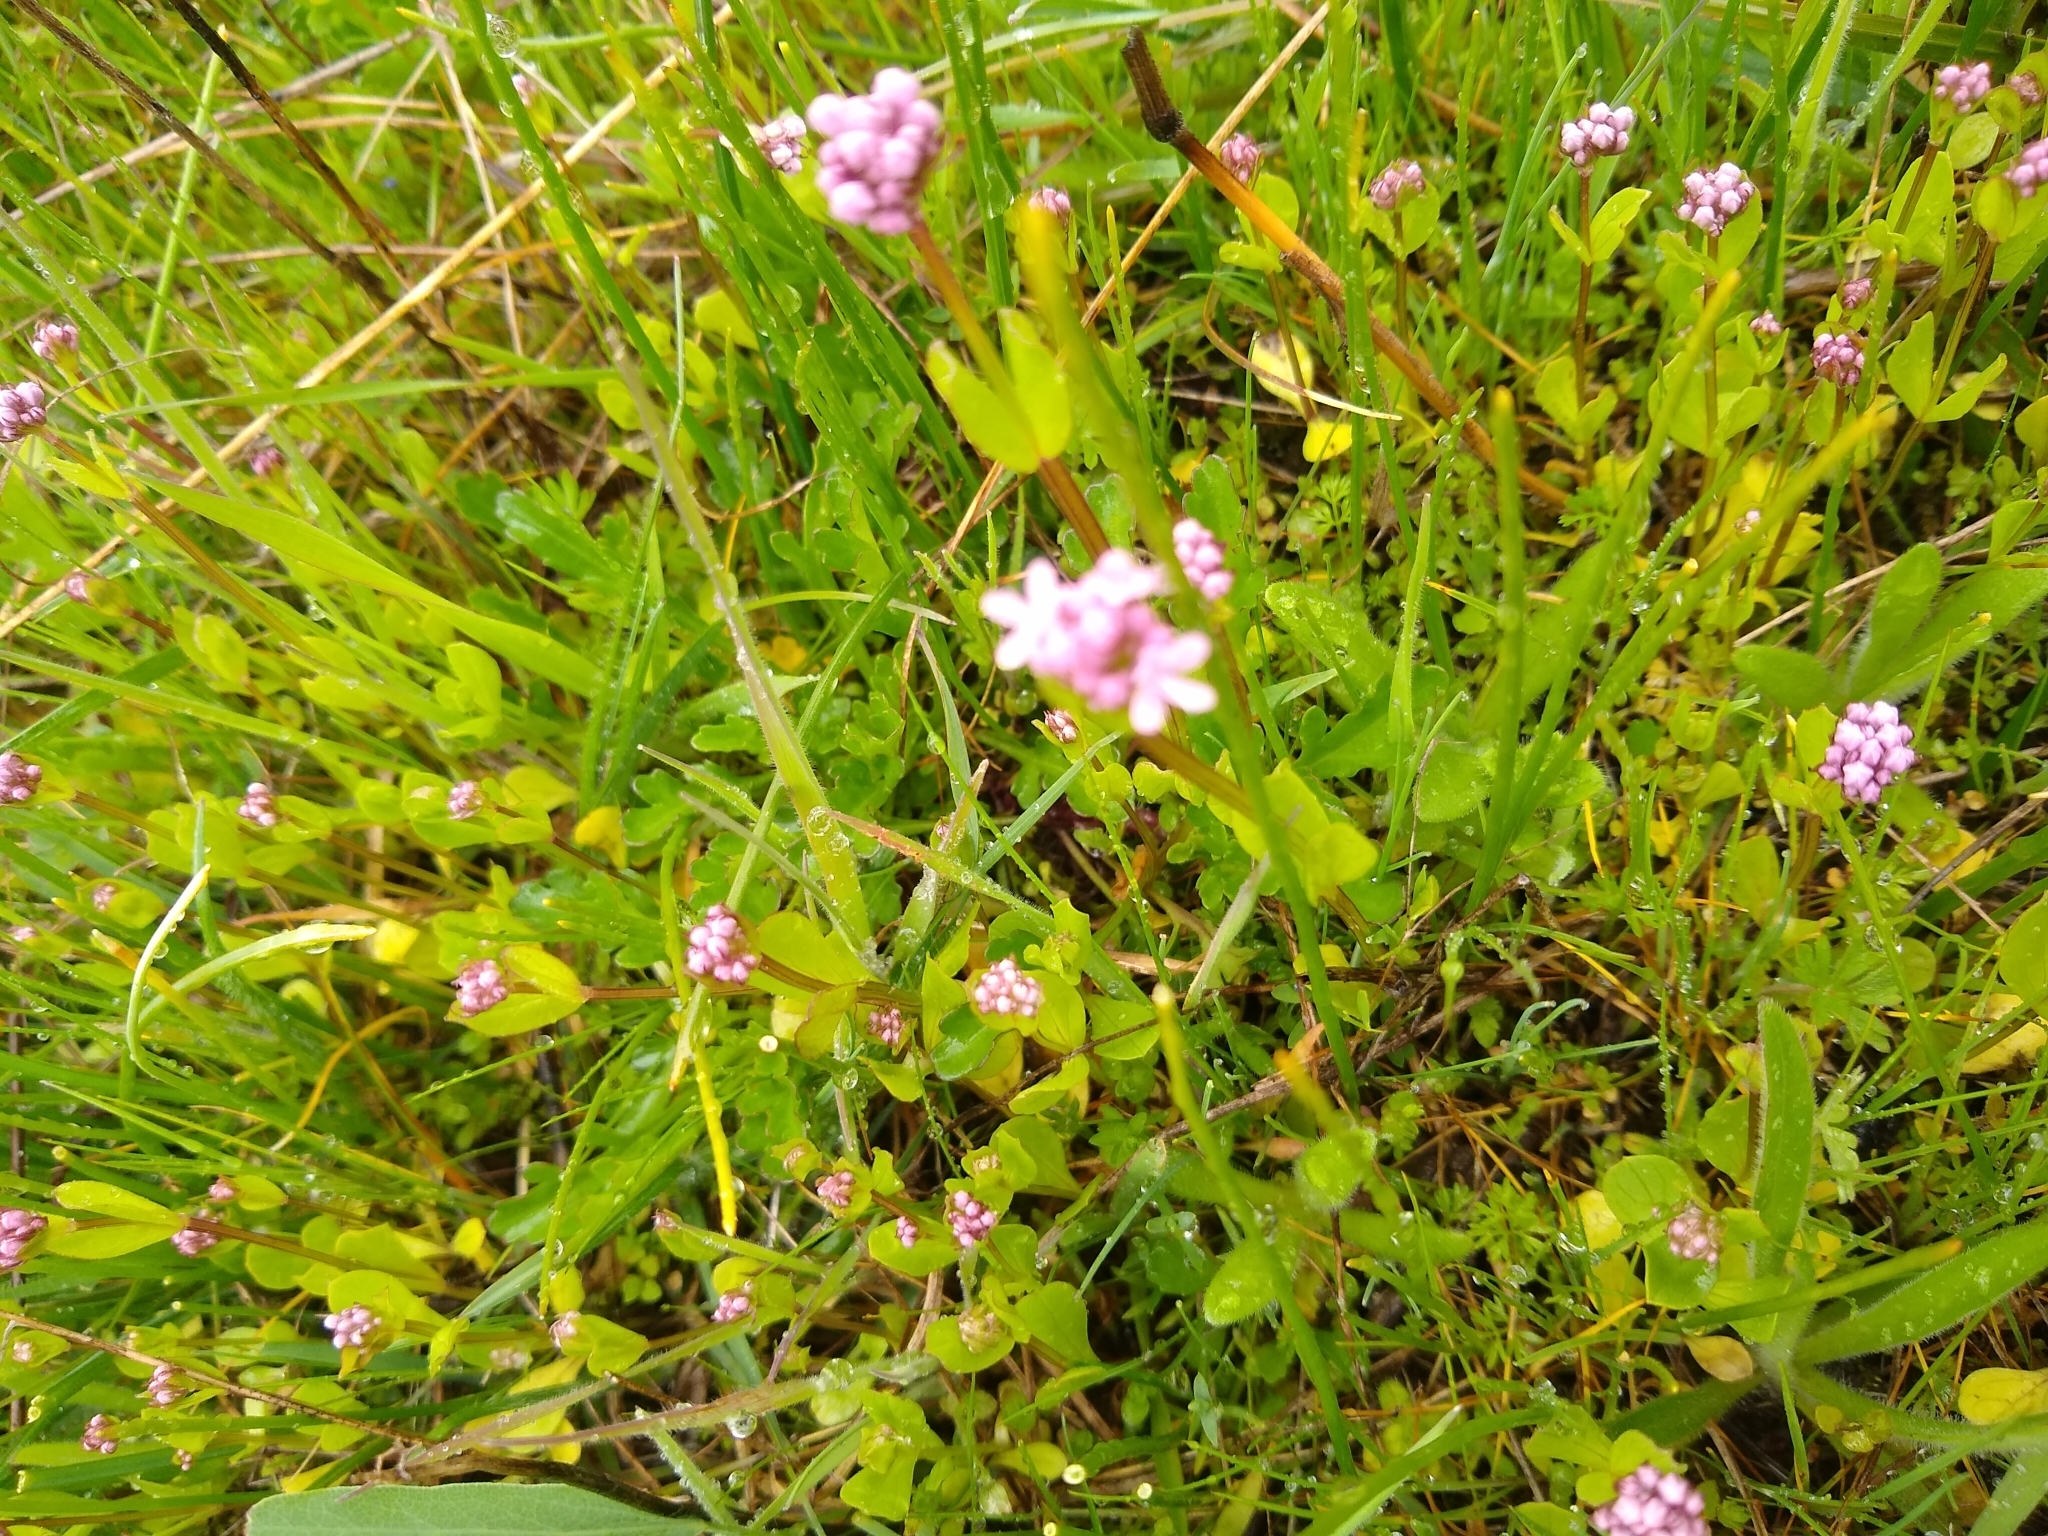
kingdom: Plantae
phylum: Tracheophyta
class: Magnoliopsida
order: Dipsacales
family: Caprifoliaceae
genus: Plectritis
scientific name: Plectritis congesta
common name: Pink plectritis
